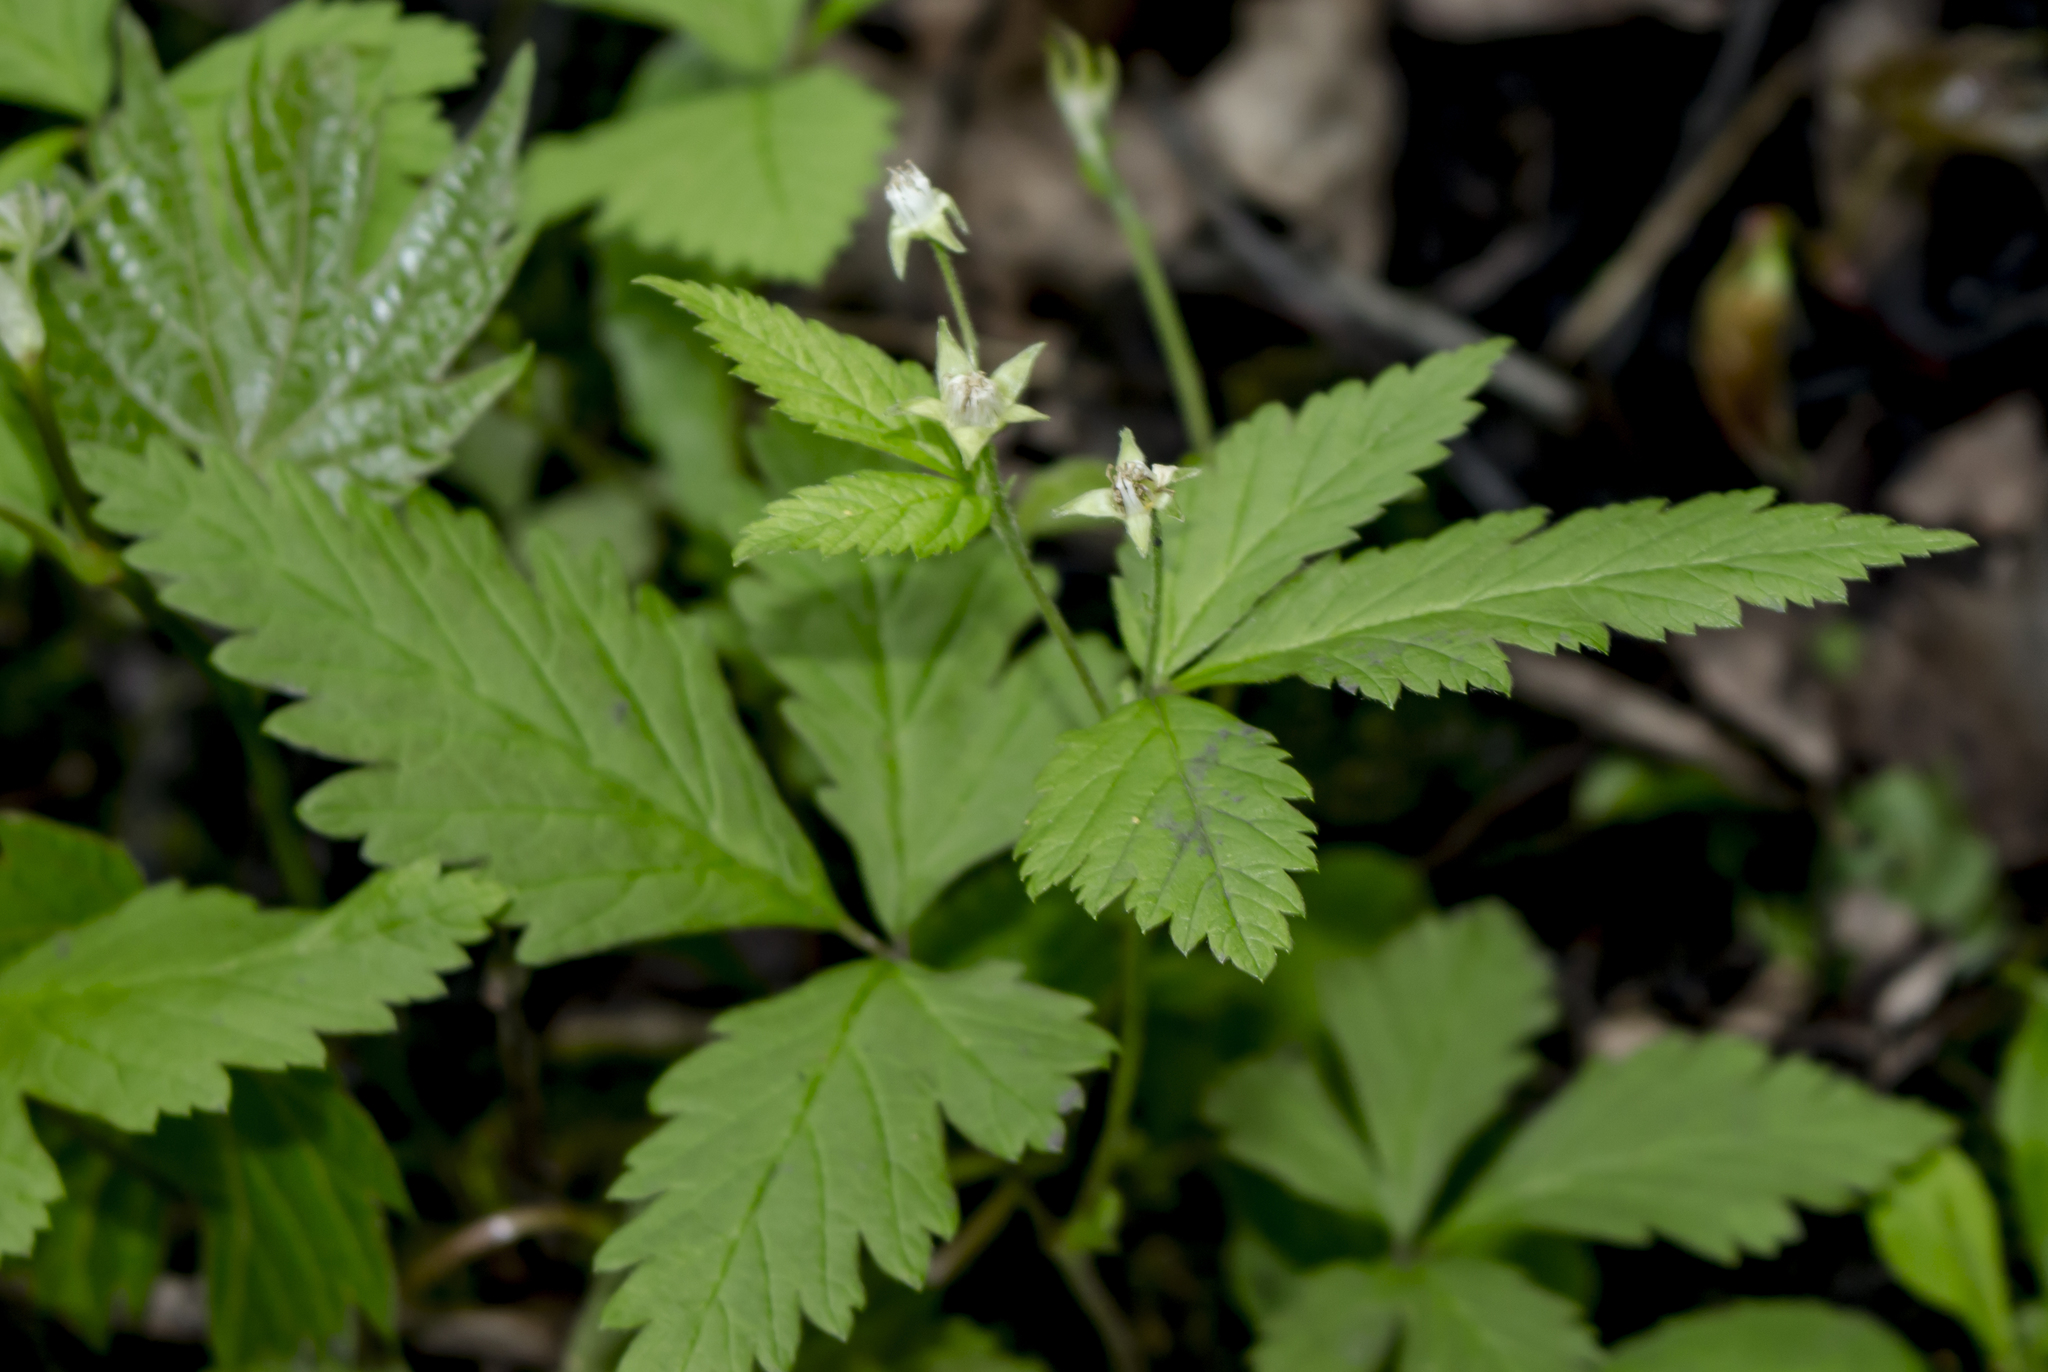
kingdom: Plantae
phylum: Tracheophyta
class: Magnoliopsida
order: Rosales
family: Rosaceae
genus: Rubus
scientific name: Rubus pubescens
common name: Dwarf raspberry
